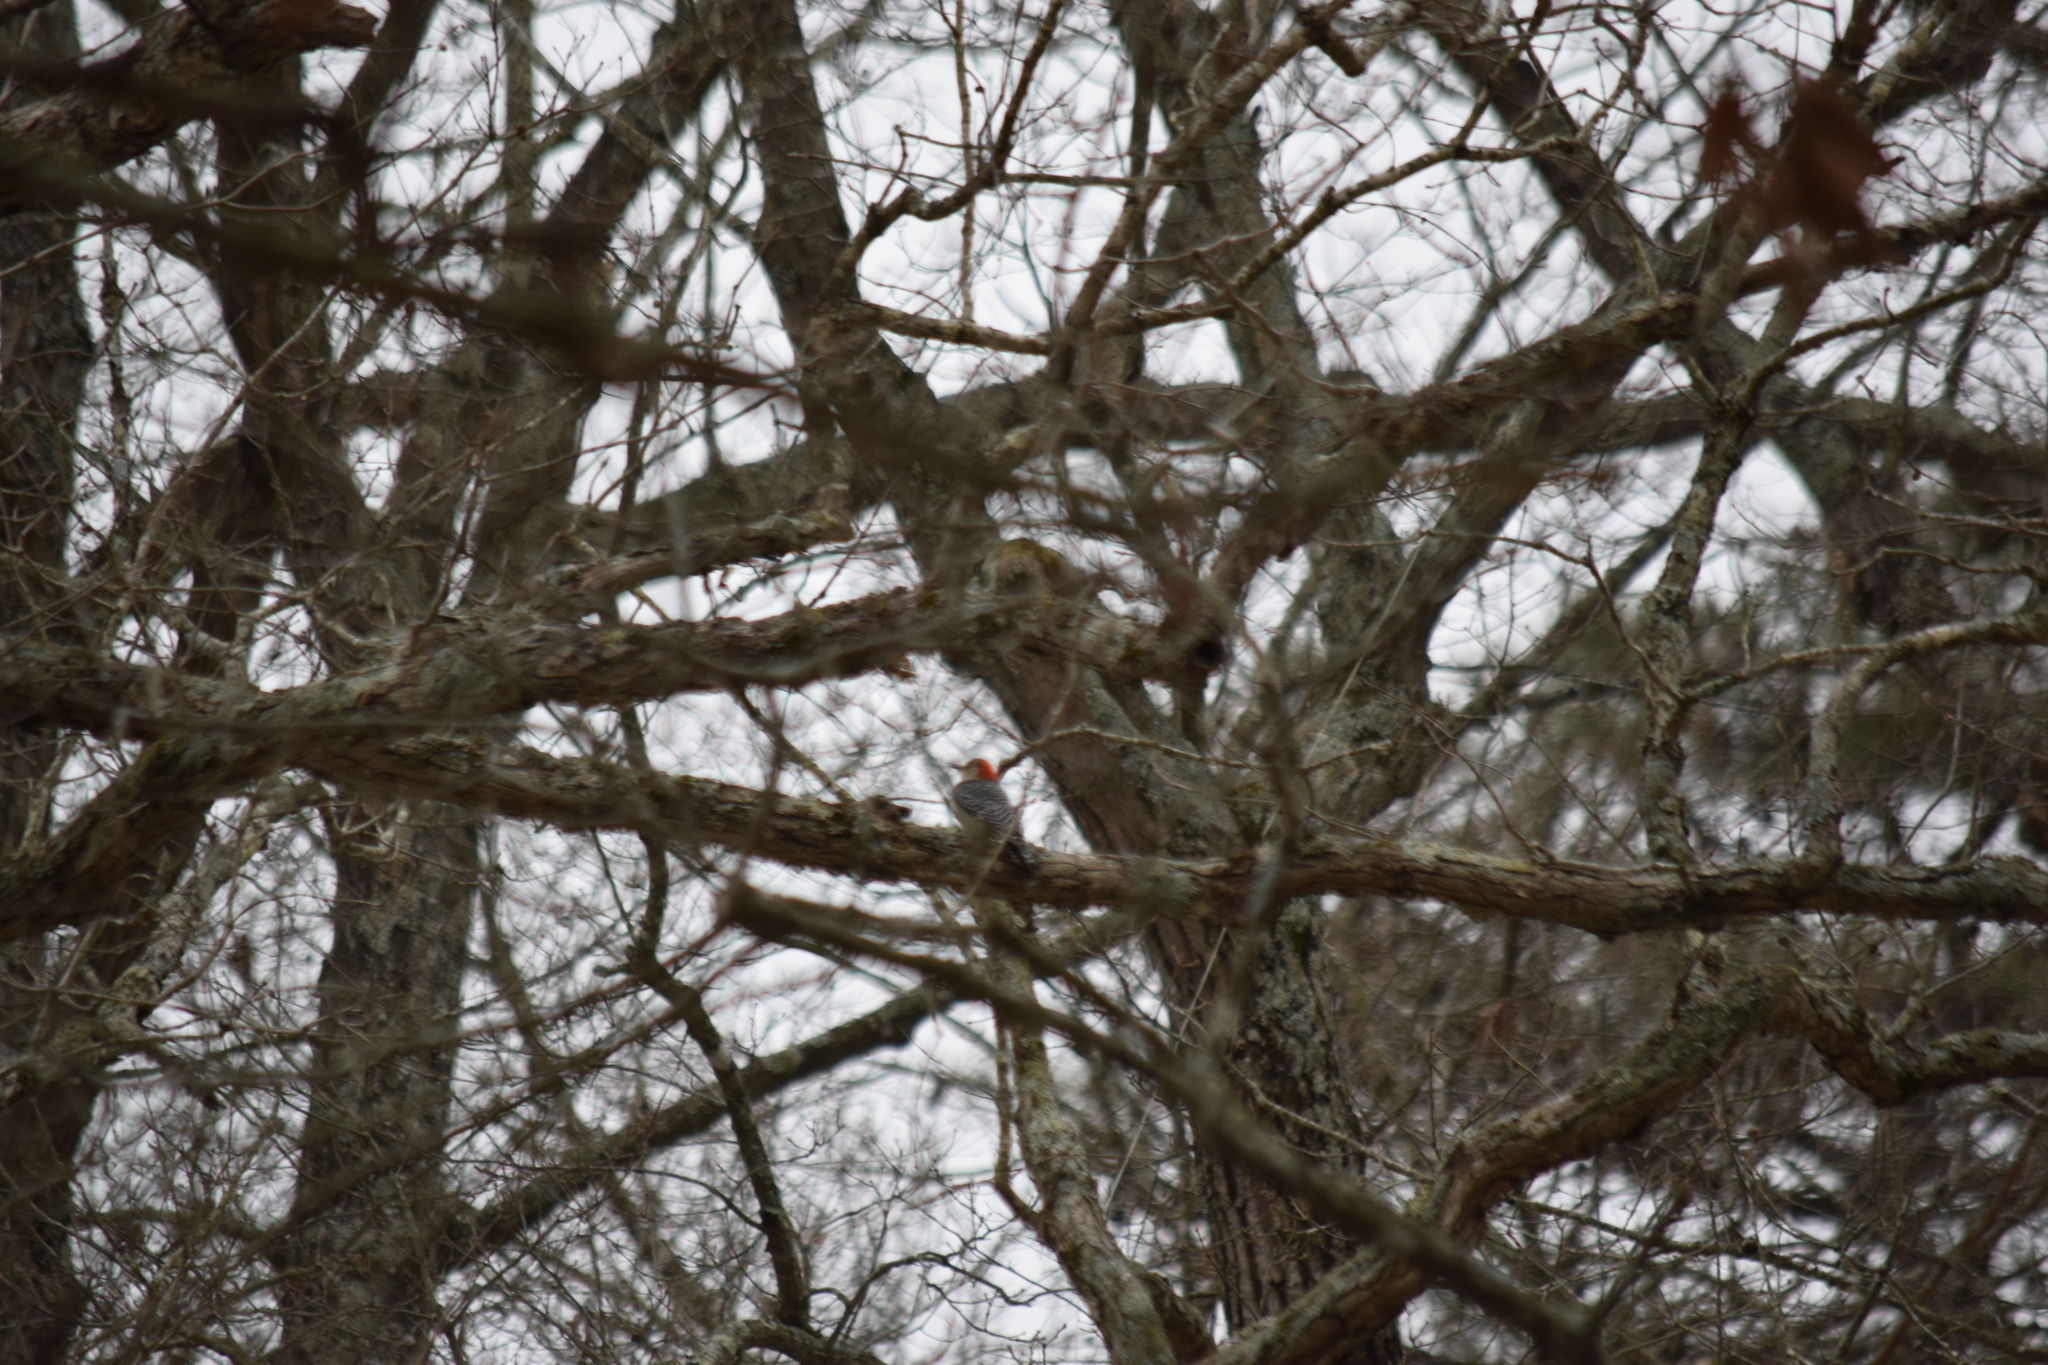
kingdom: Animalia
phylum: Chordata
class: Aves
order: Piciformes
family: Picidae
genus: Melanerpes
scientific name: Melanerpes carolinus
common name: Red-bellied woodpecker
